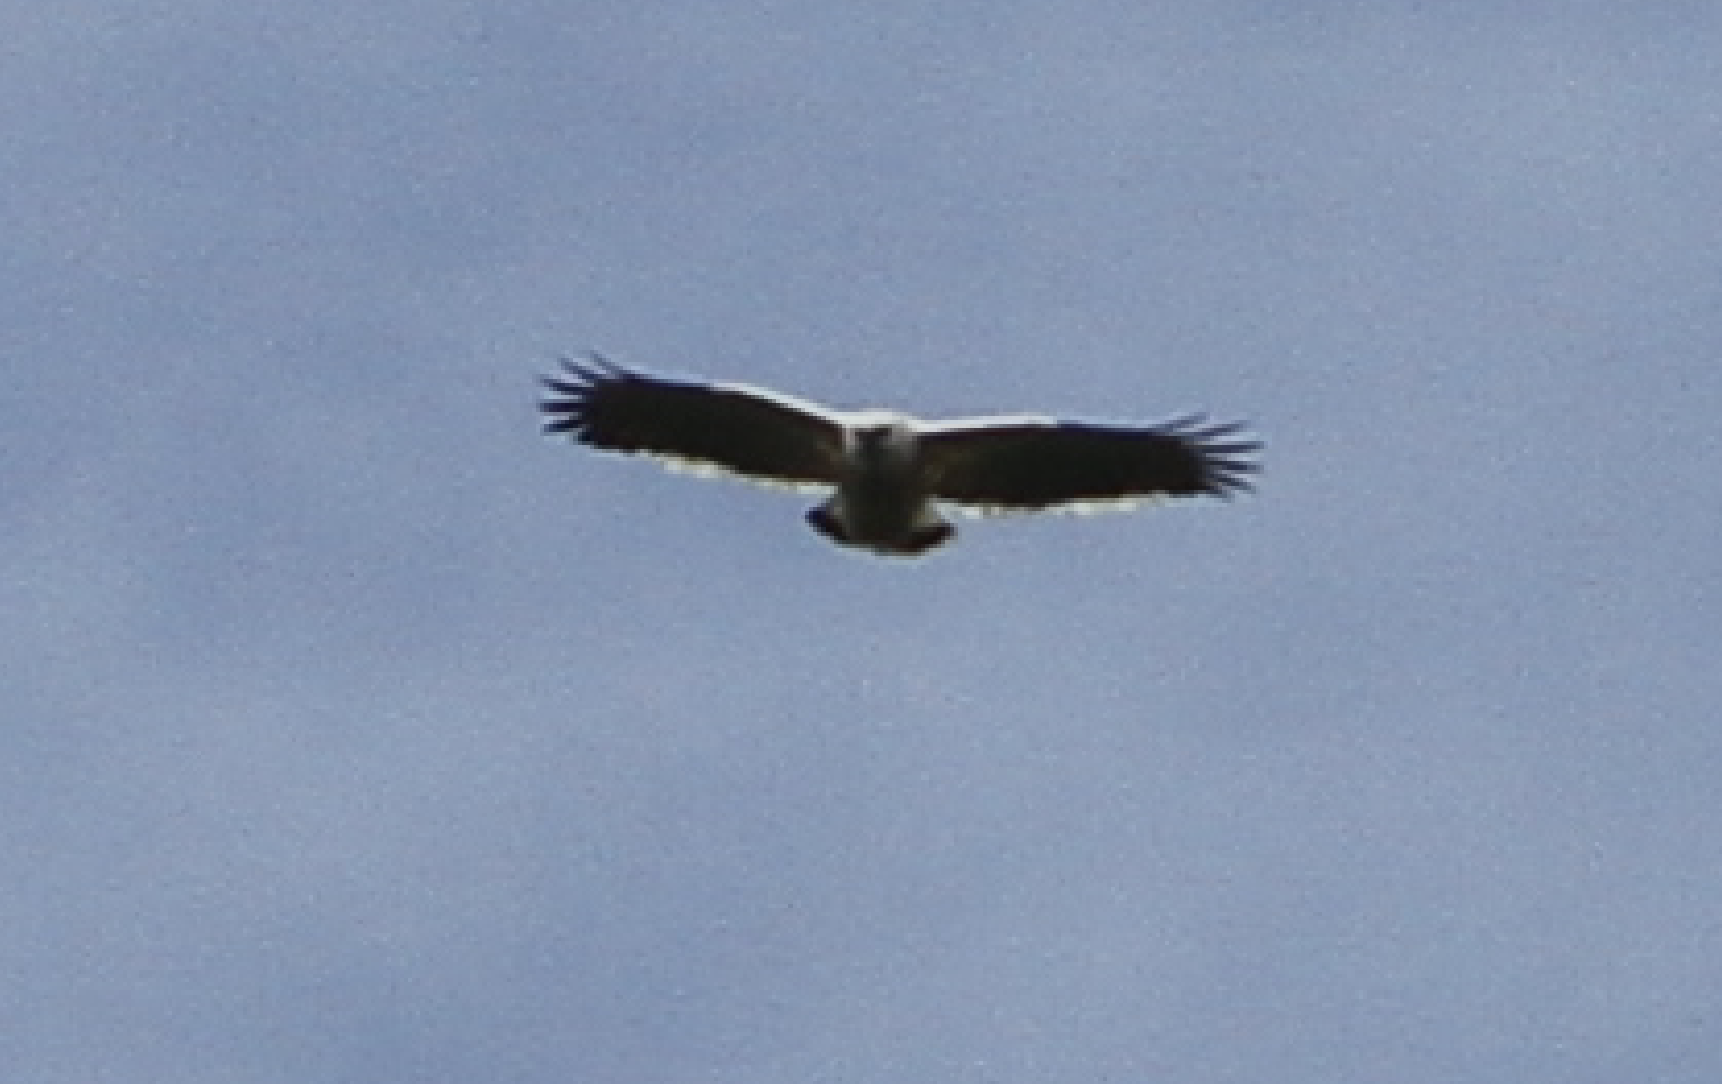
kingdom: Animalia
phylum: Chordata
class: Aves
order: Accipitriformes
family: Accipitridae
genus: Leucopternis
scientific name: Leucopternis albicollis
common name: White hawk
